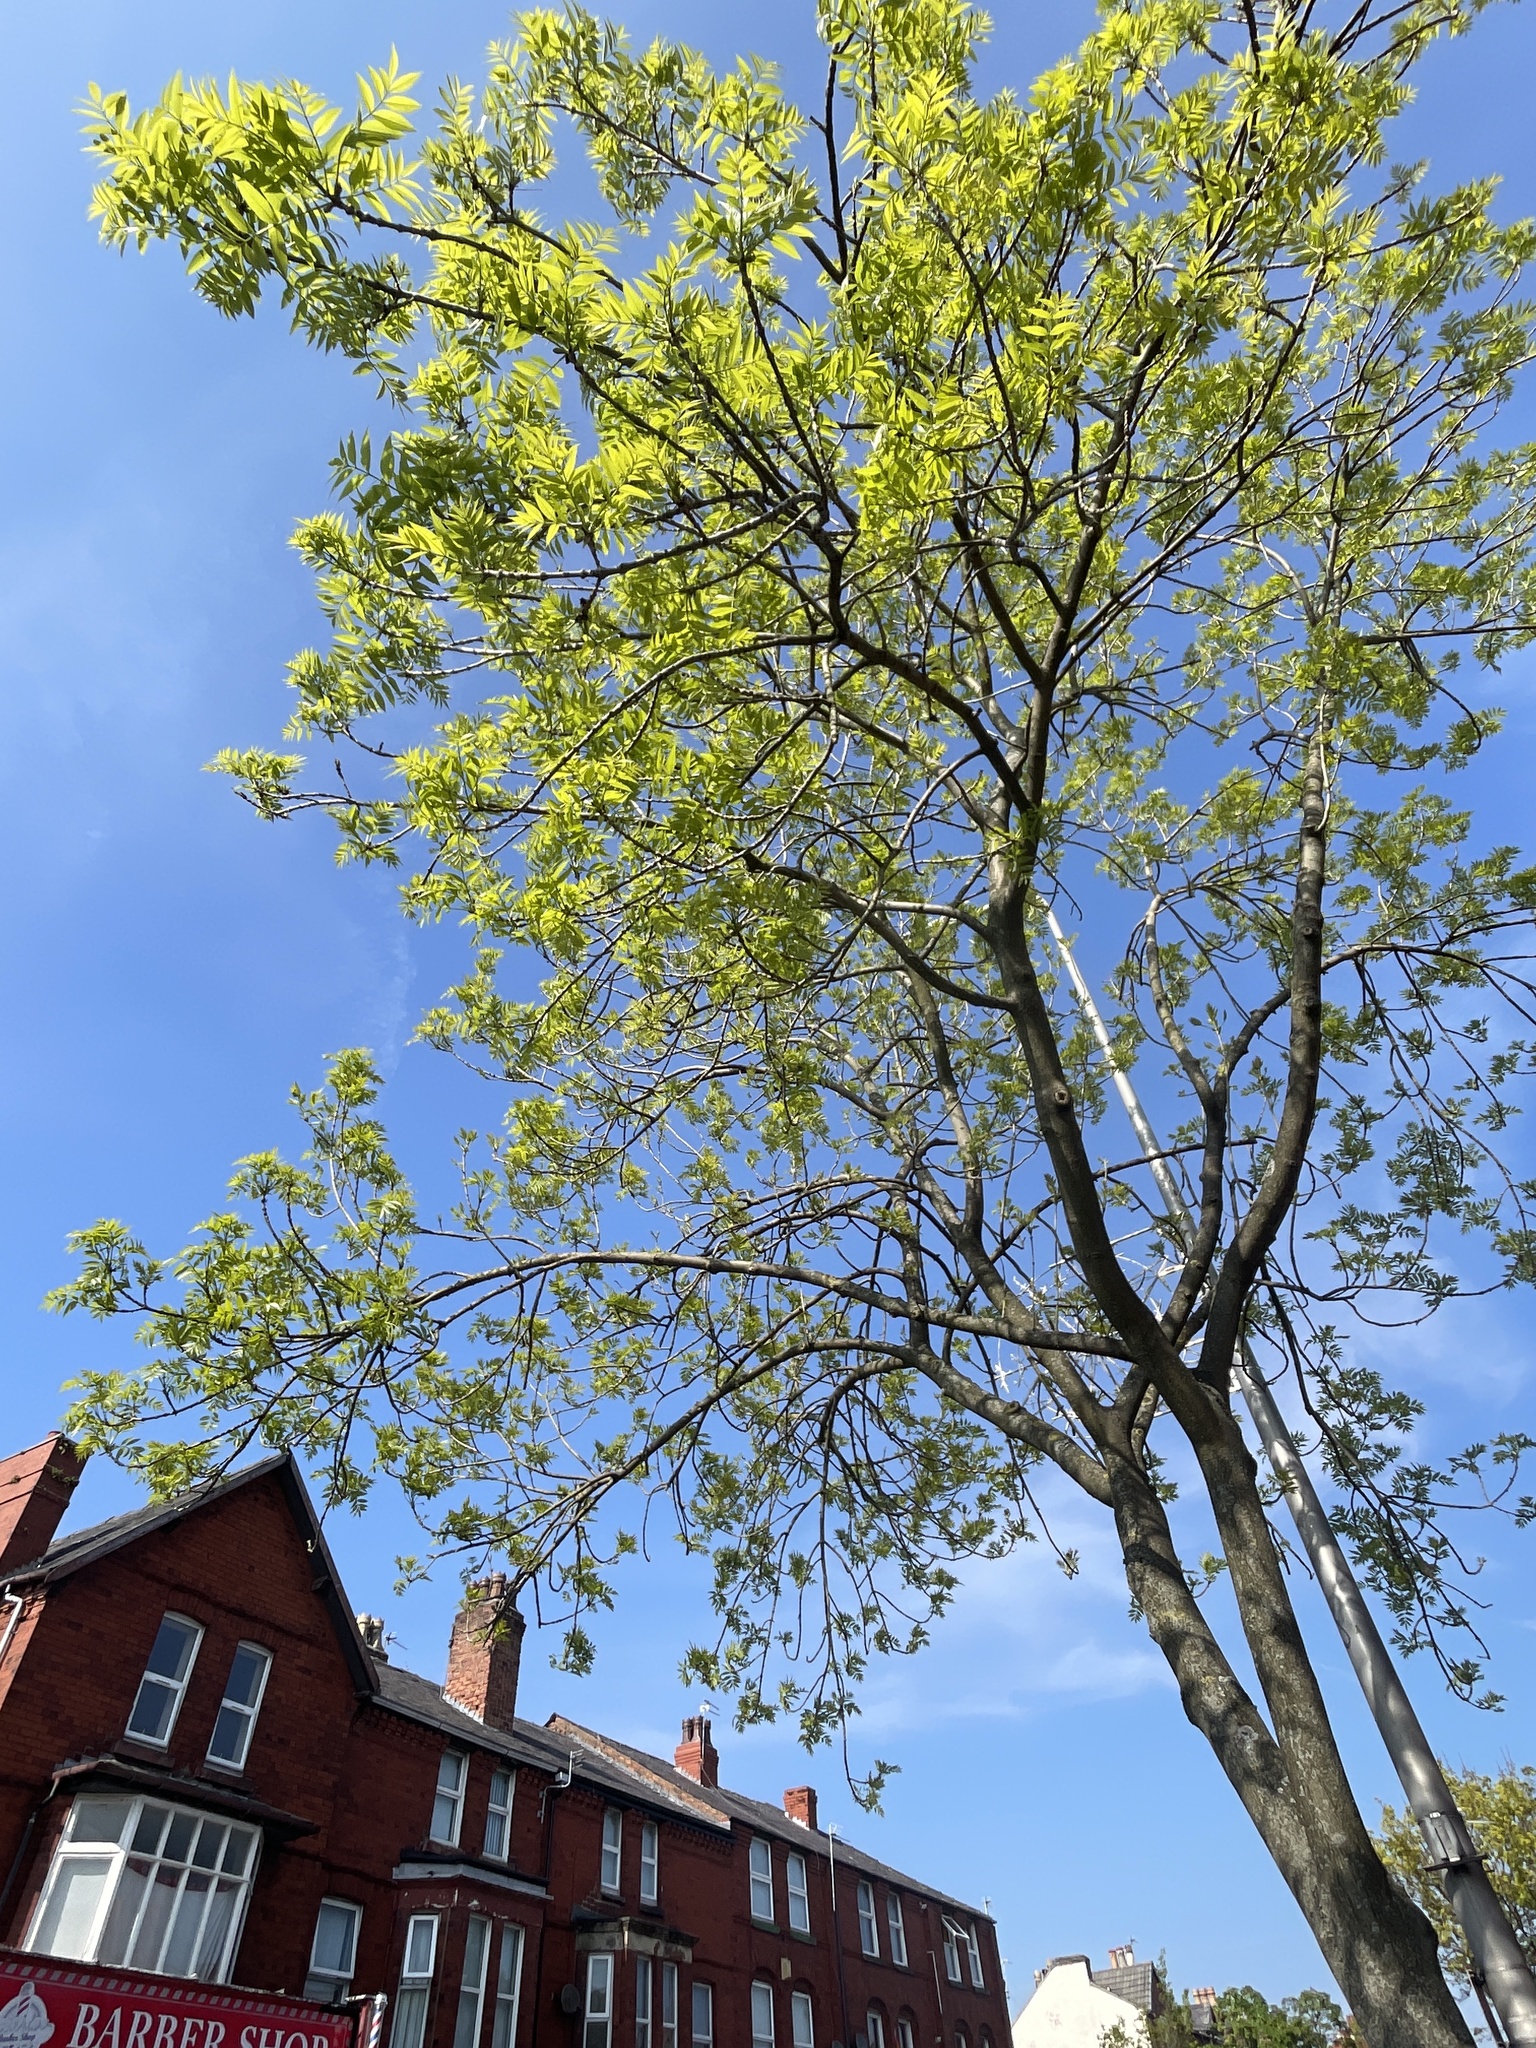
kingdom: Plantae
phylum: Tracheophyta
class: Magnoliopsida
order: Lamiales
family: Oleaceae
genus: Fraxinus
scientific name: Fraxinus excelsior
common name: European ash
